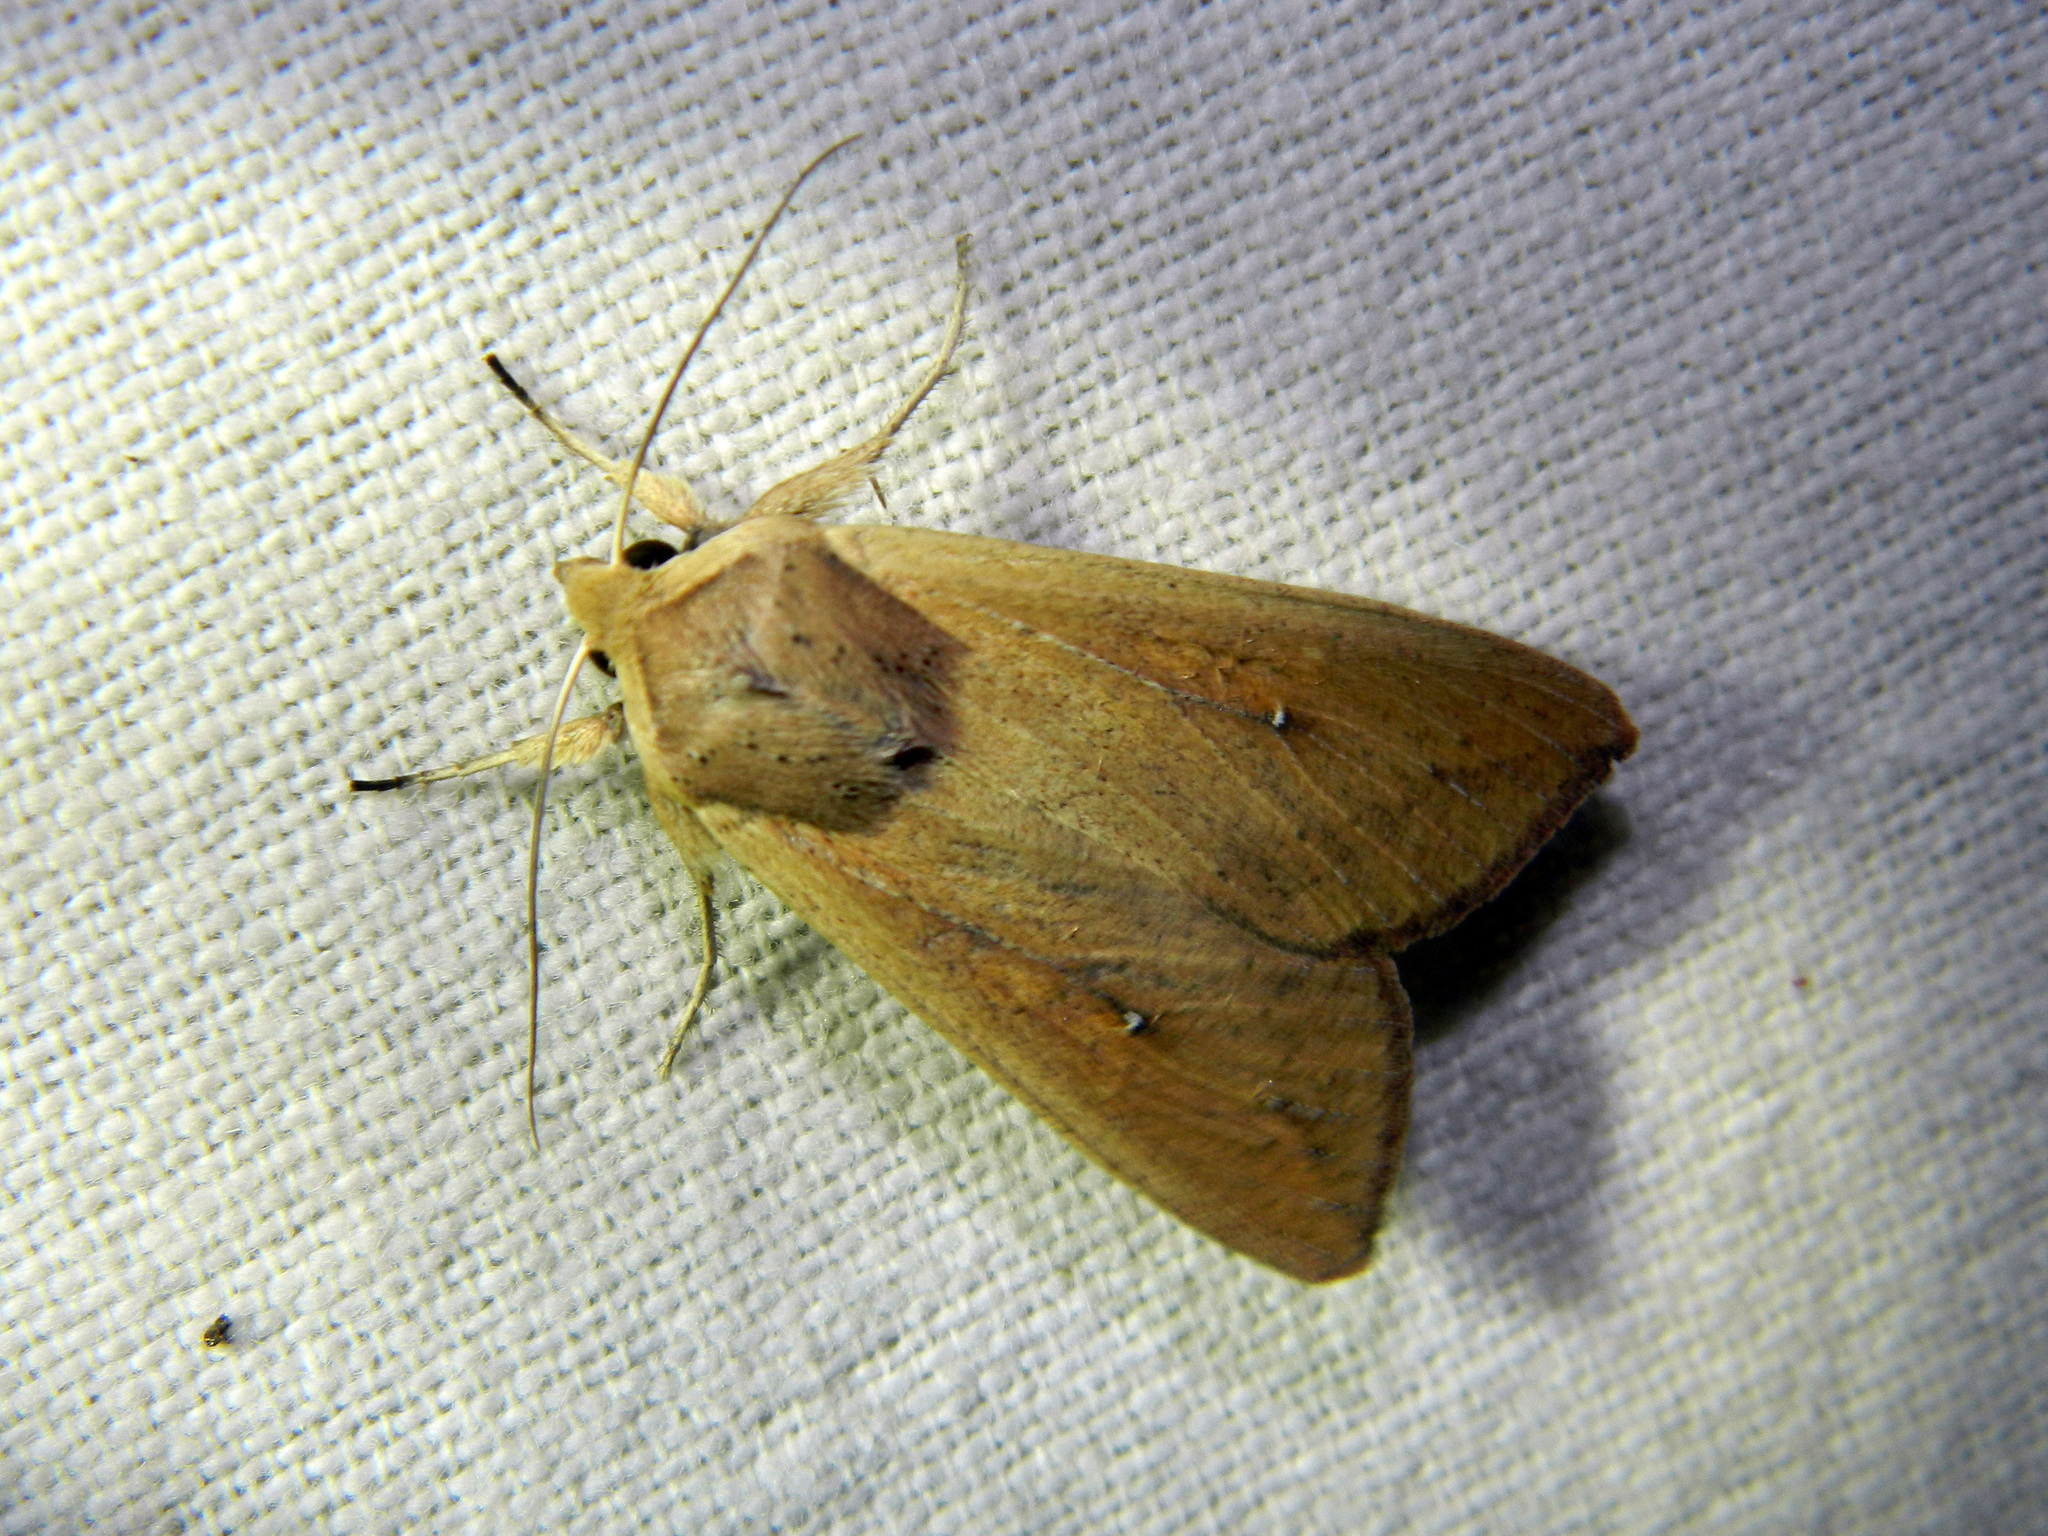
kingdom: Animalia
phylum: Arthropoda
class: Insecta
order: Lepidoptera
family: Noctuidae
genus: Mythimna
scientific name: Mythimna unipuncta
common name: White-speck
